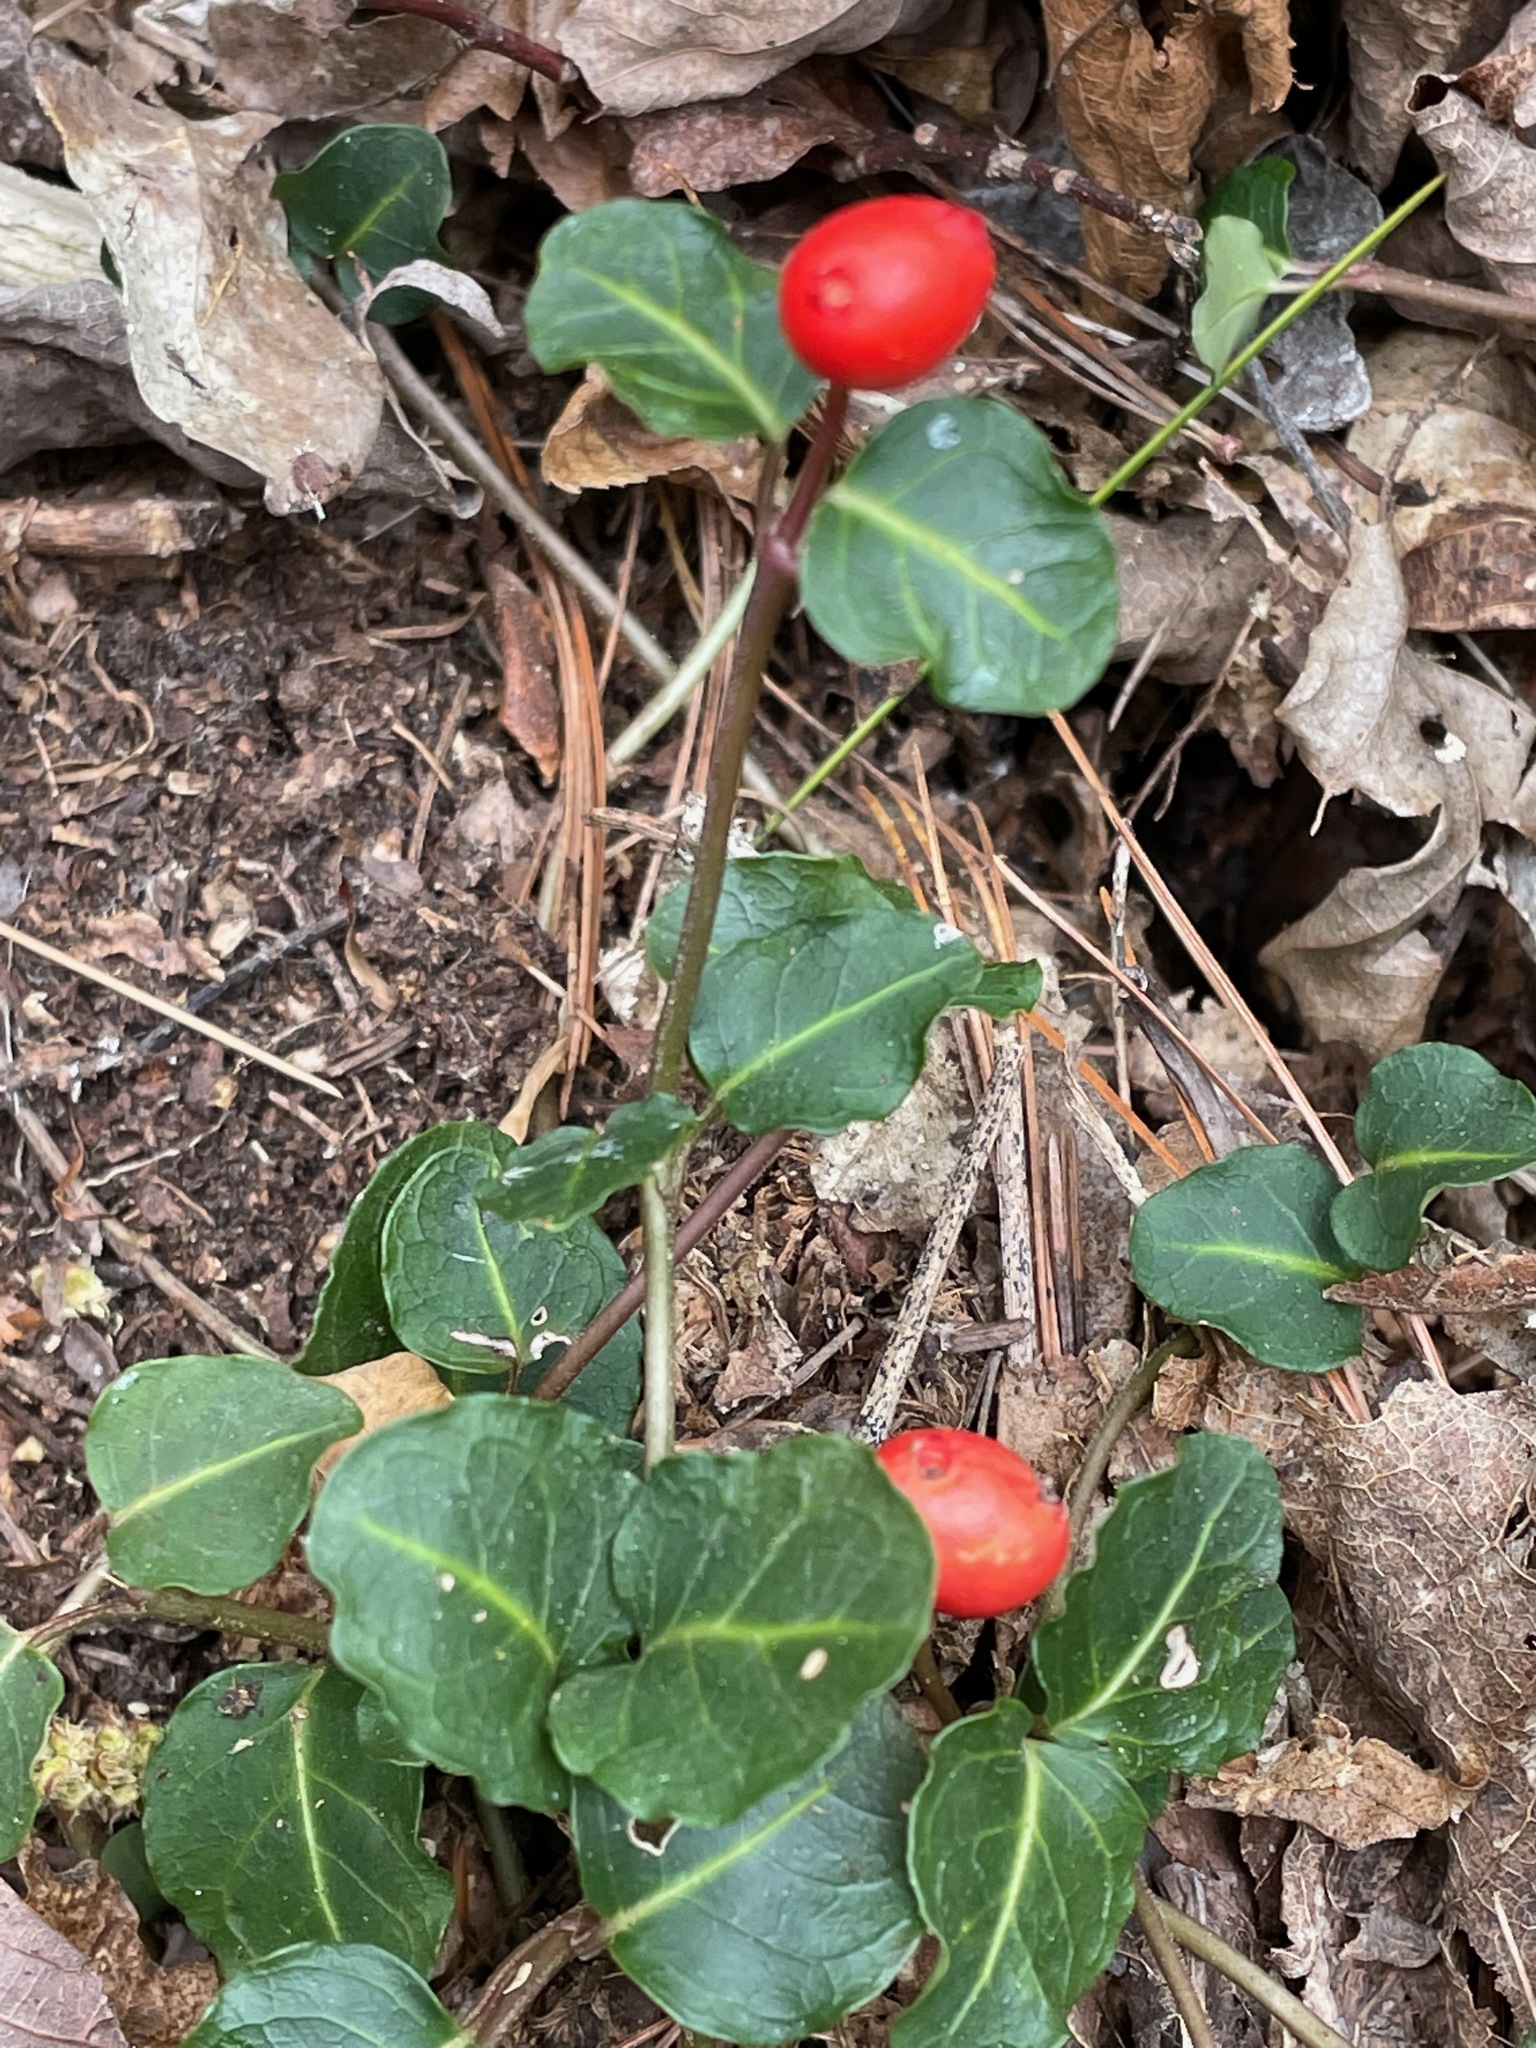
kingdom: Plantae
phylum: Tracheophyta
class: Magnoliopsida
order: Gentianales
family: Rubiaceae
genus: Mitchella
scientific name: Mitchella repens
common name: Partridge-berry
